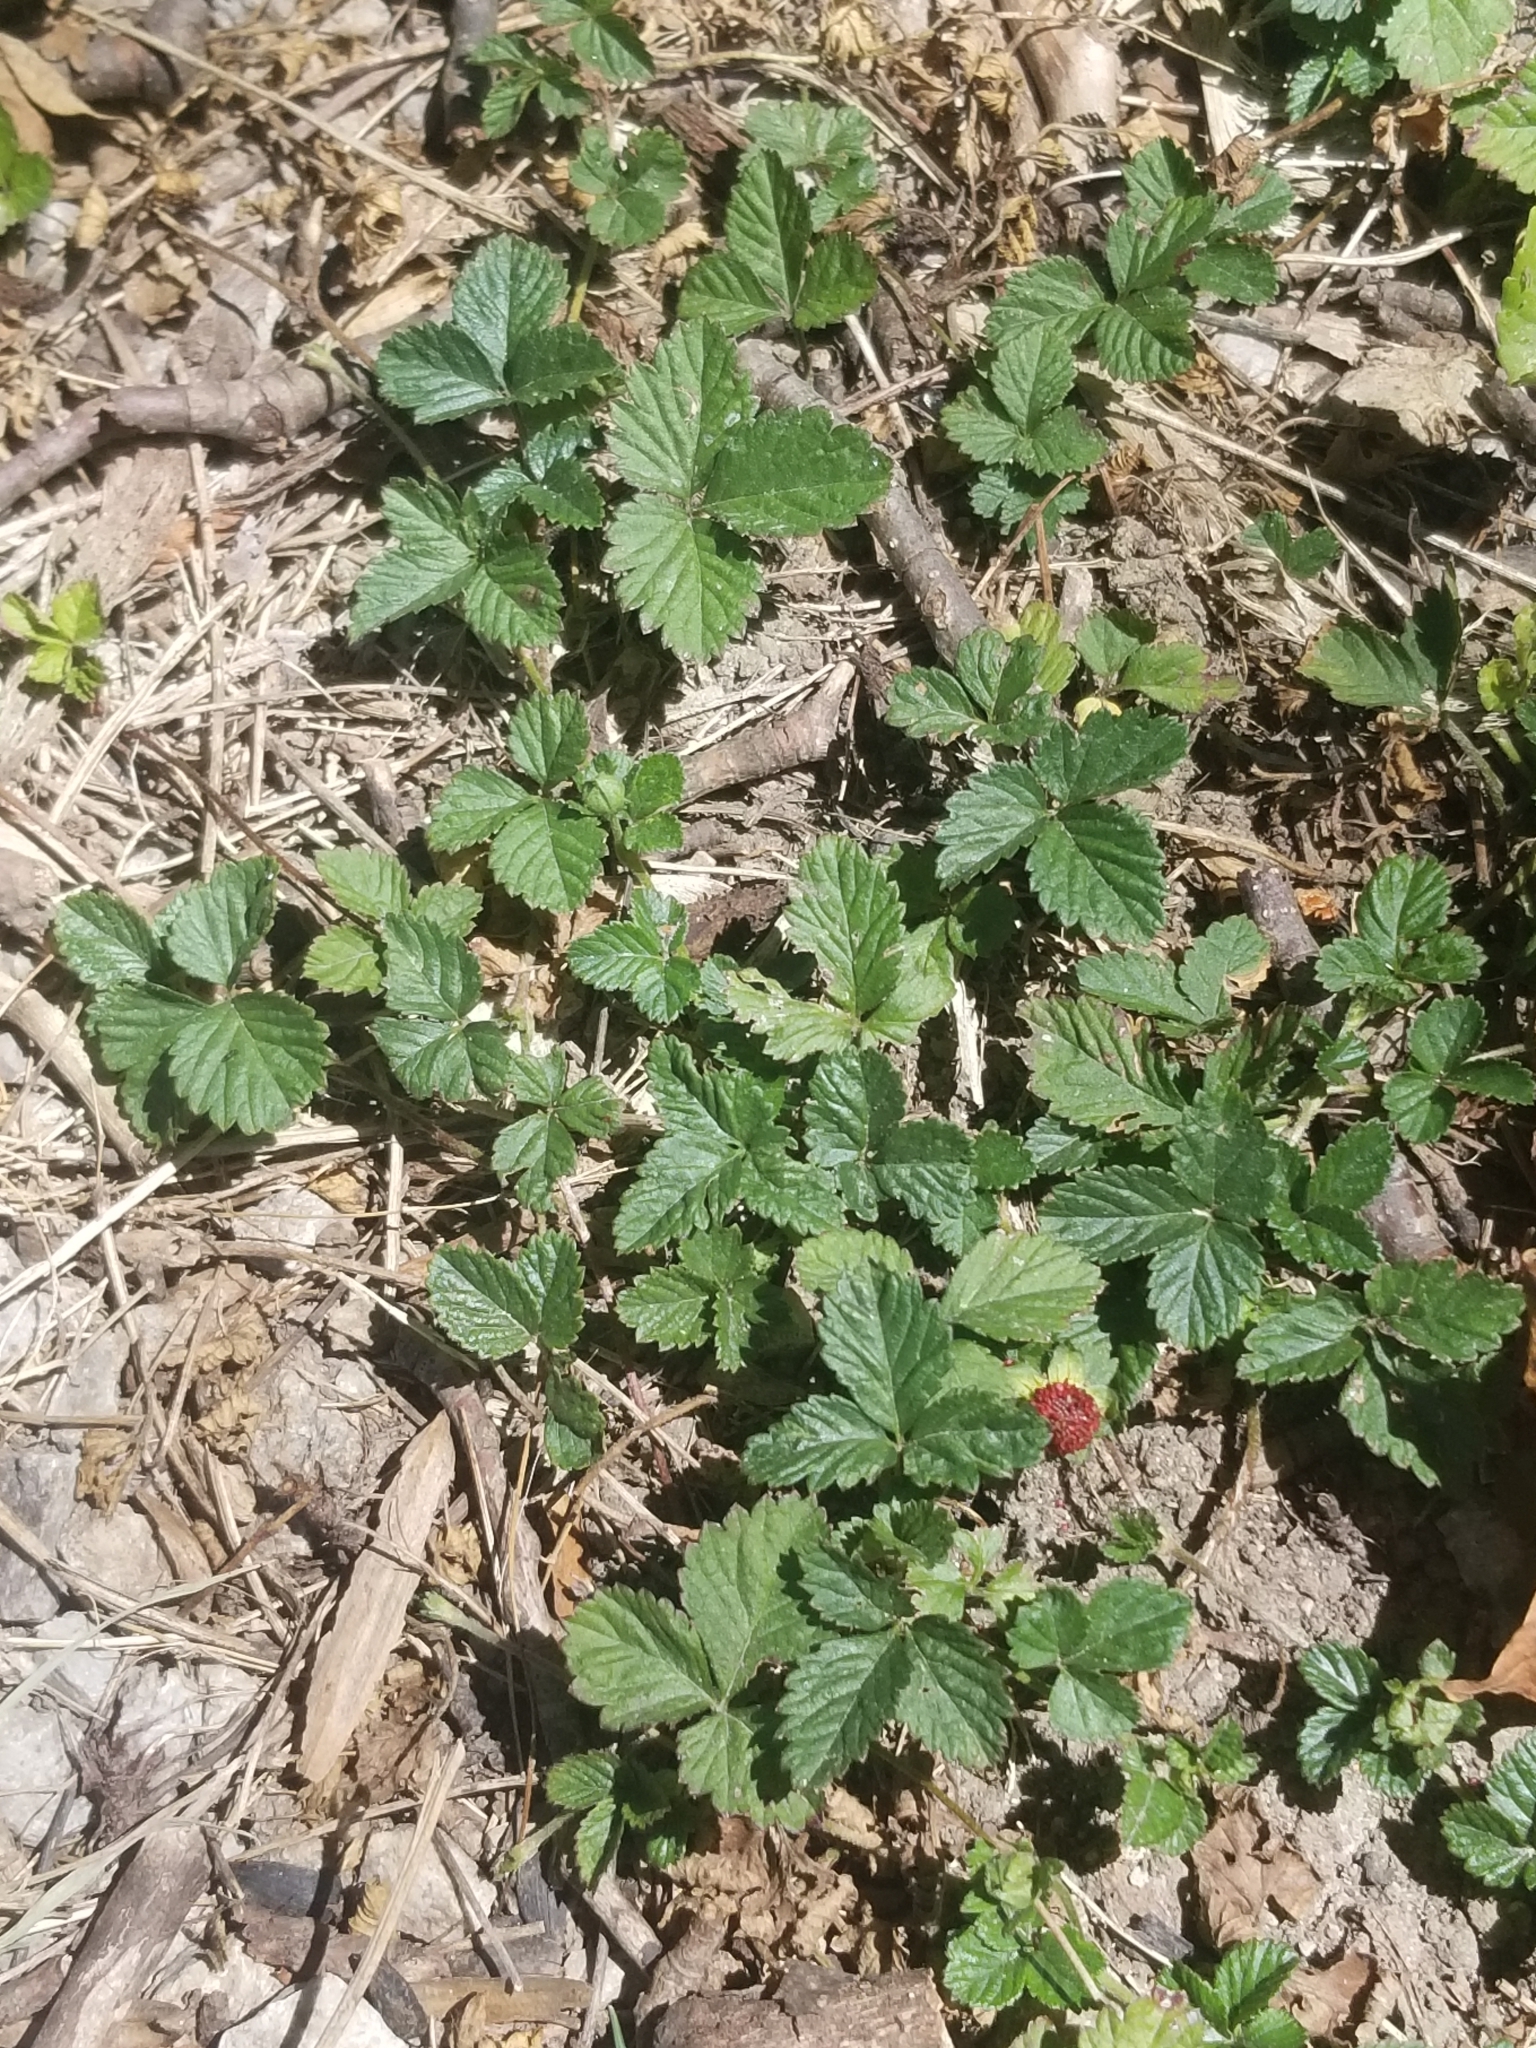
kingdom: Plantae
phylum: Tracheophyta
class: Magnoliopsida
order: Rosales
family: Rosaceae
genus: Potentilla
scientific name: Potentilla indica
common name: Yellow-flowered strawberry
